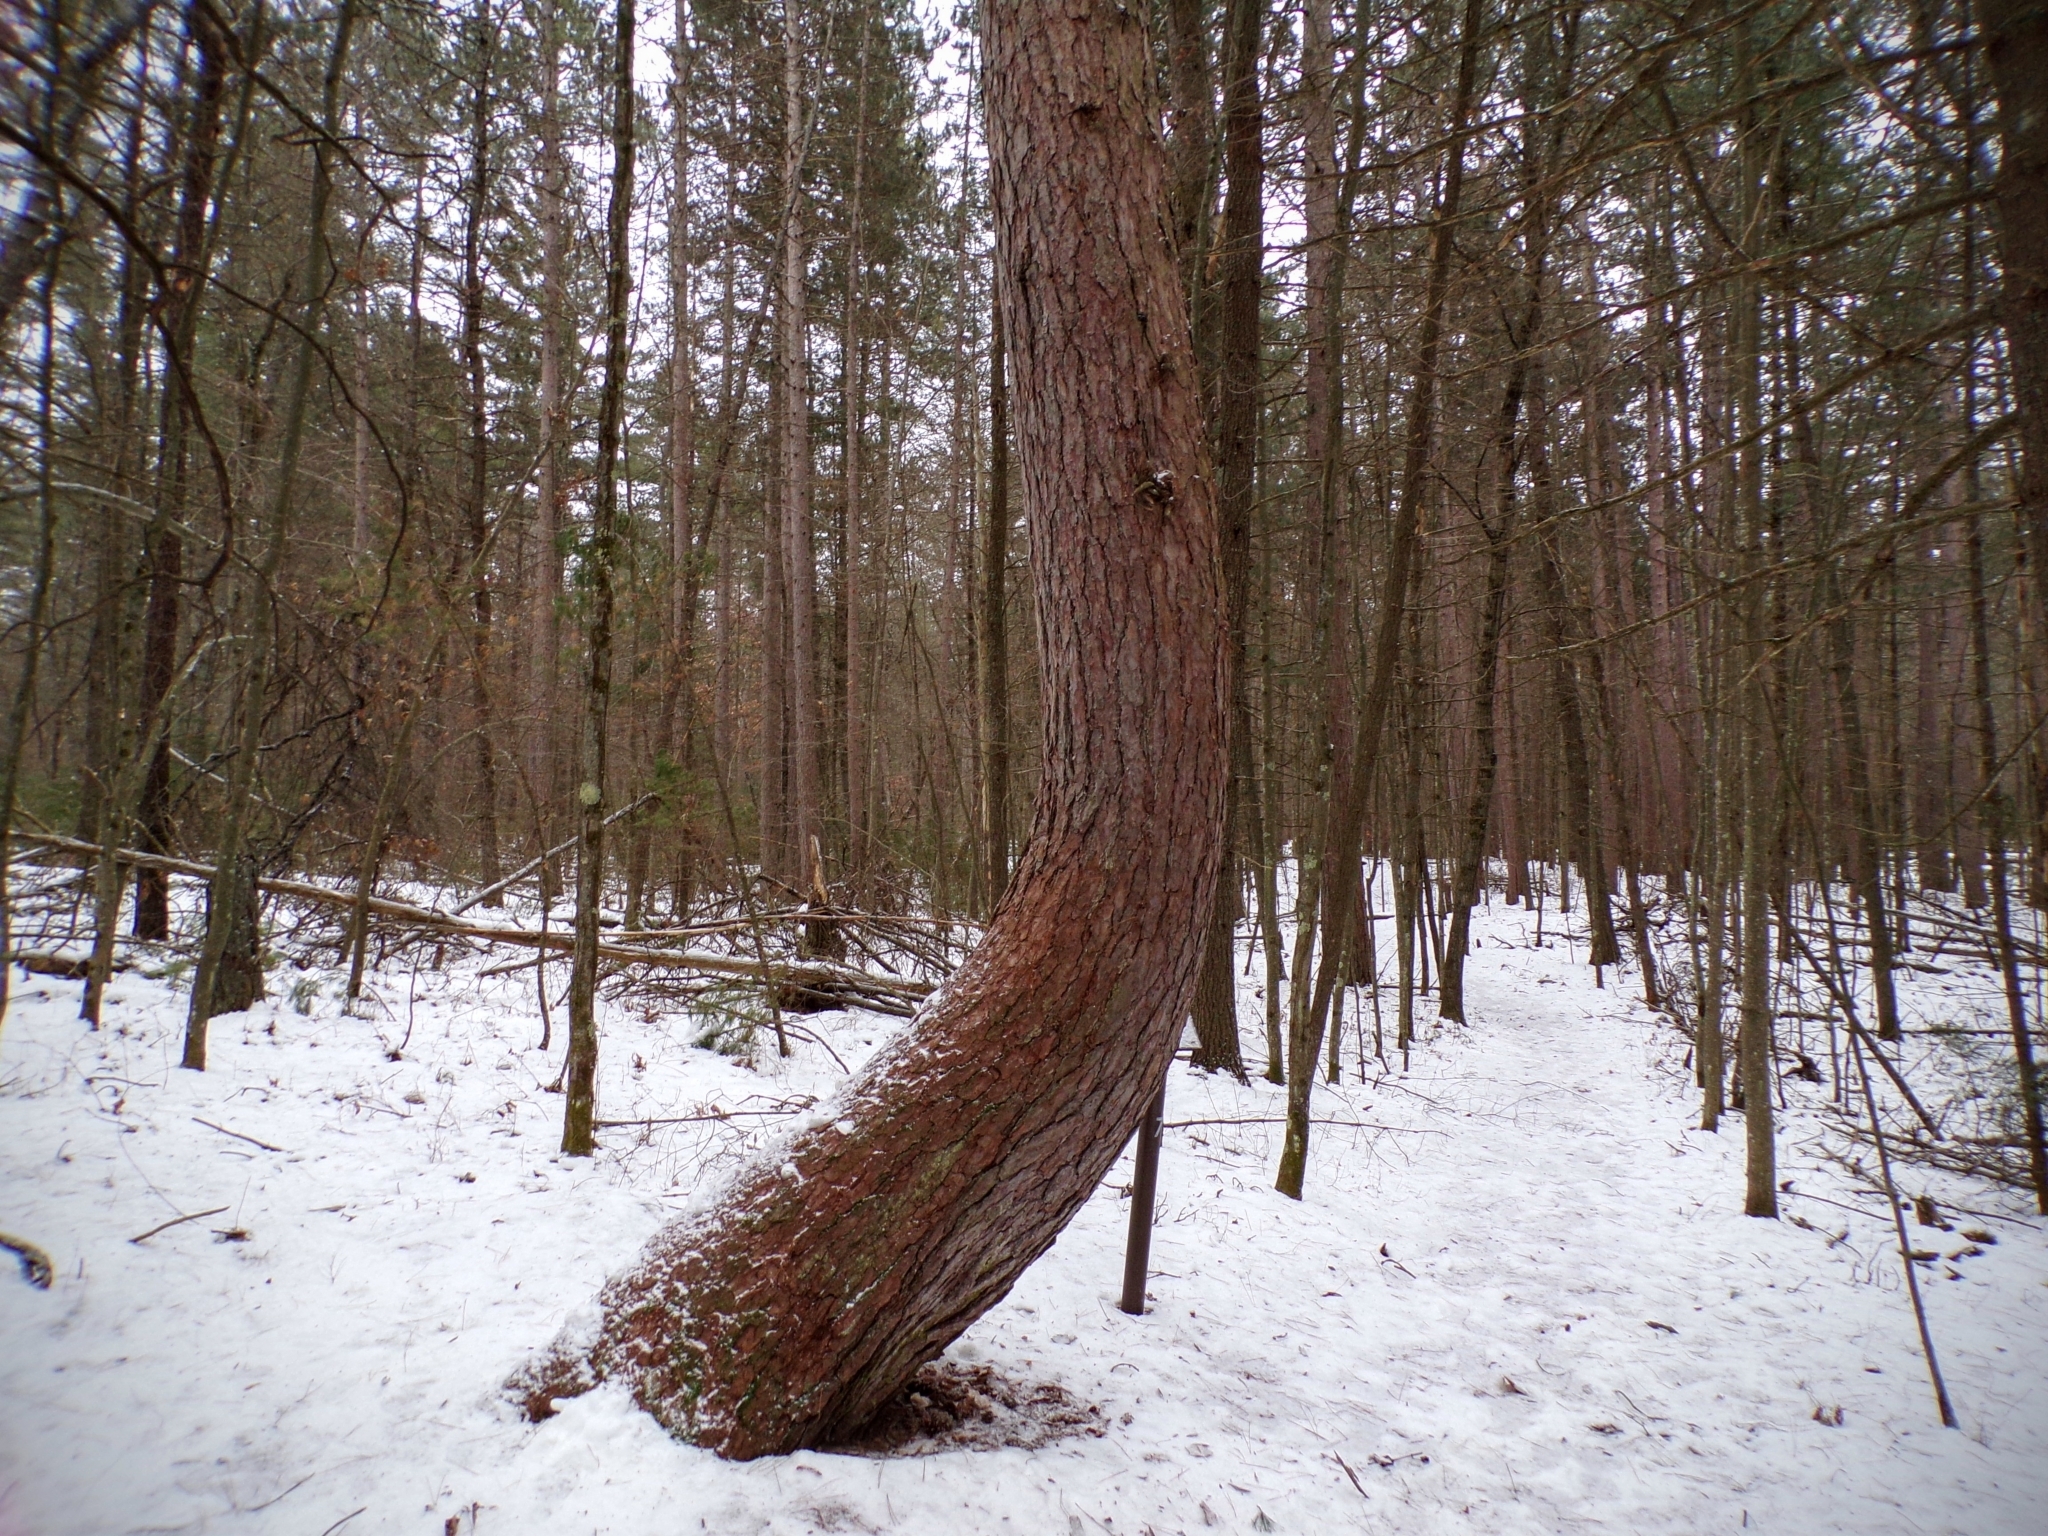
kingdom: Plantae
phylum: Tracheophyta
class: Pinopsida
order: Pinales
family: Pinaceae
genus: Pinus
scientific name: Pinus resinosa
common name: Norway pine
